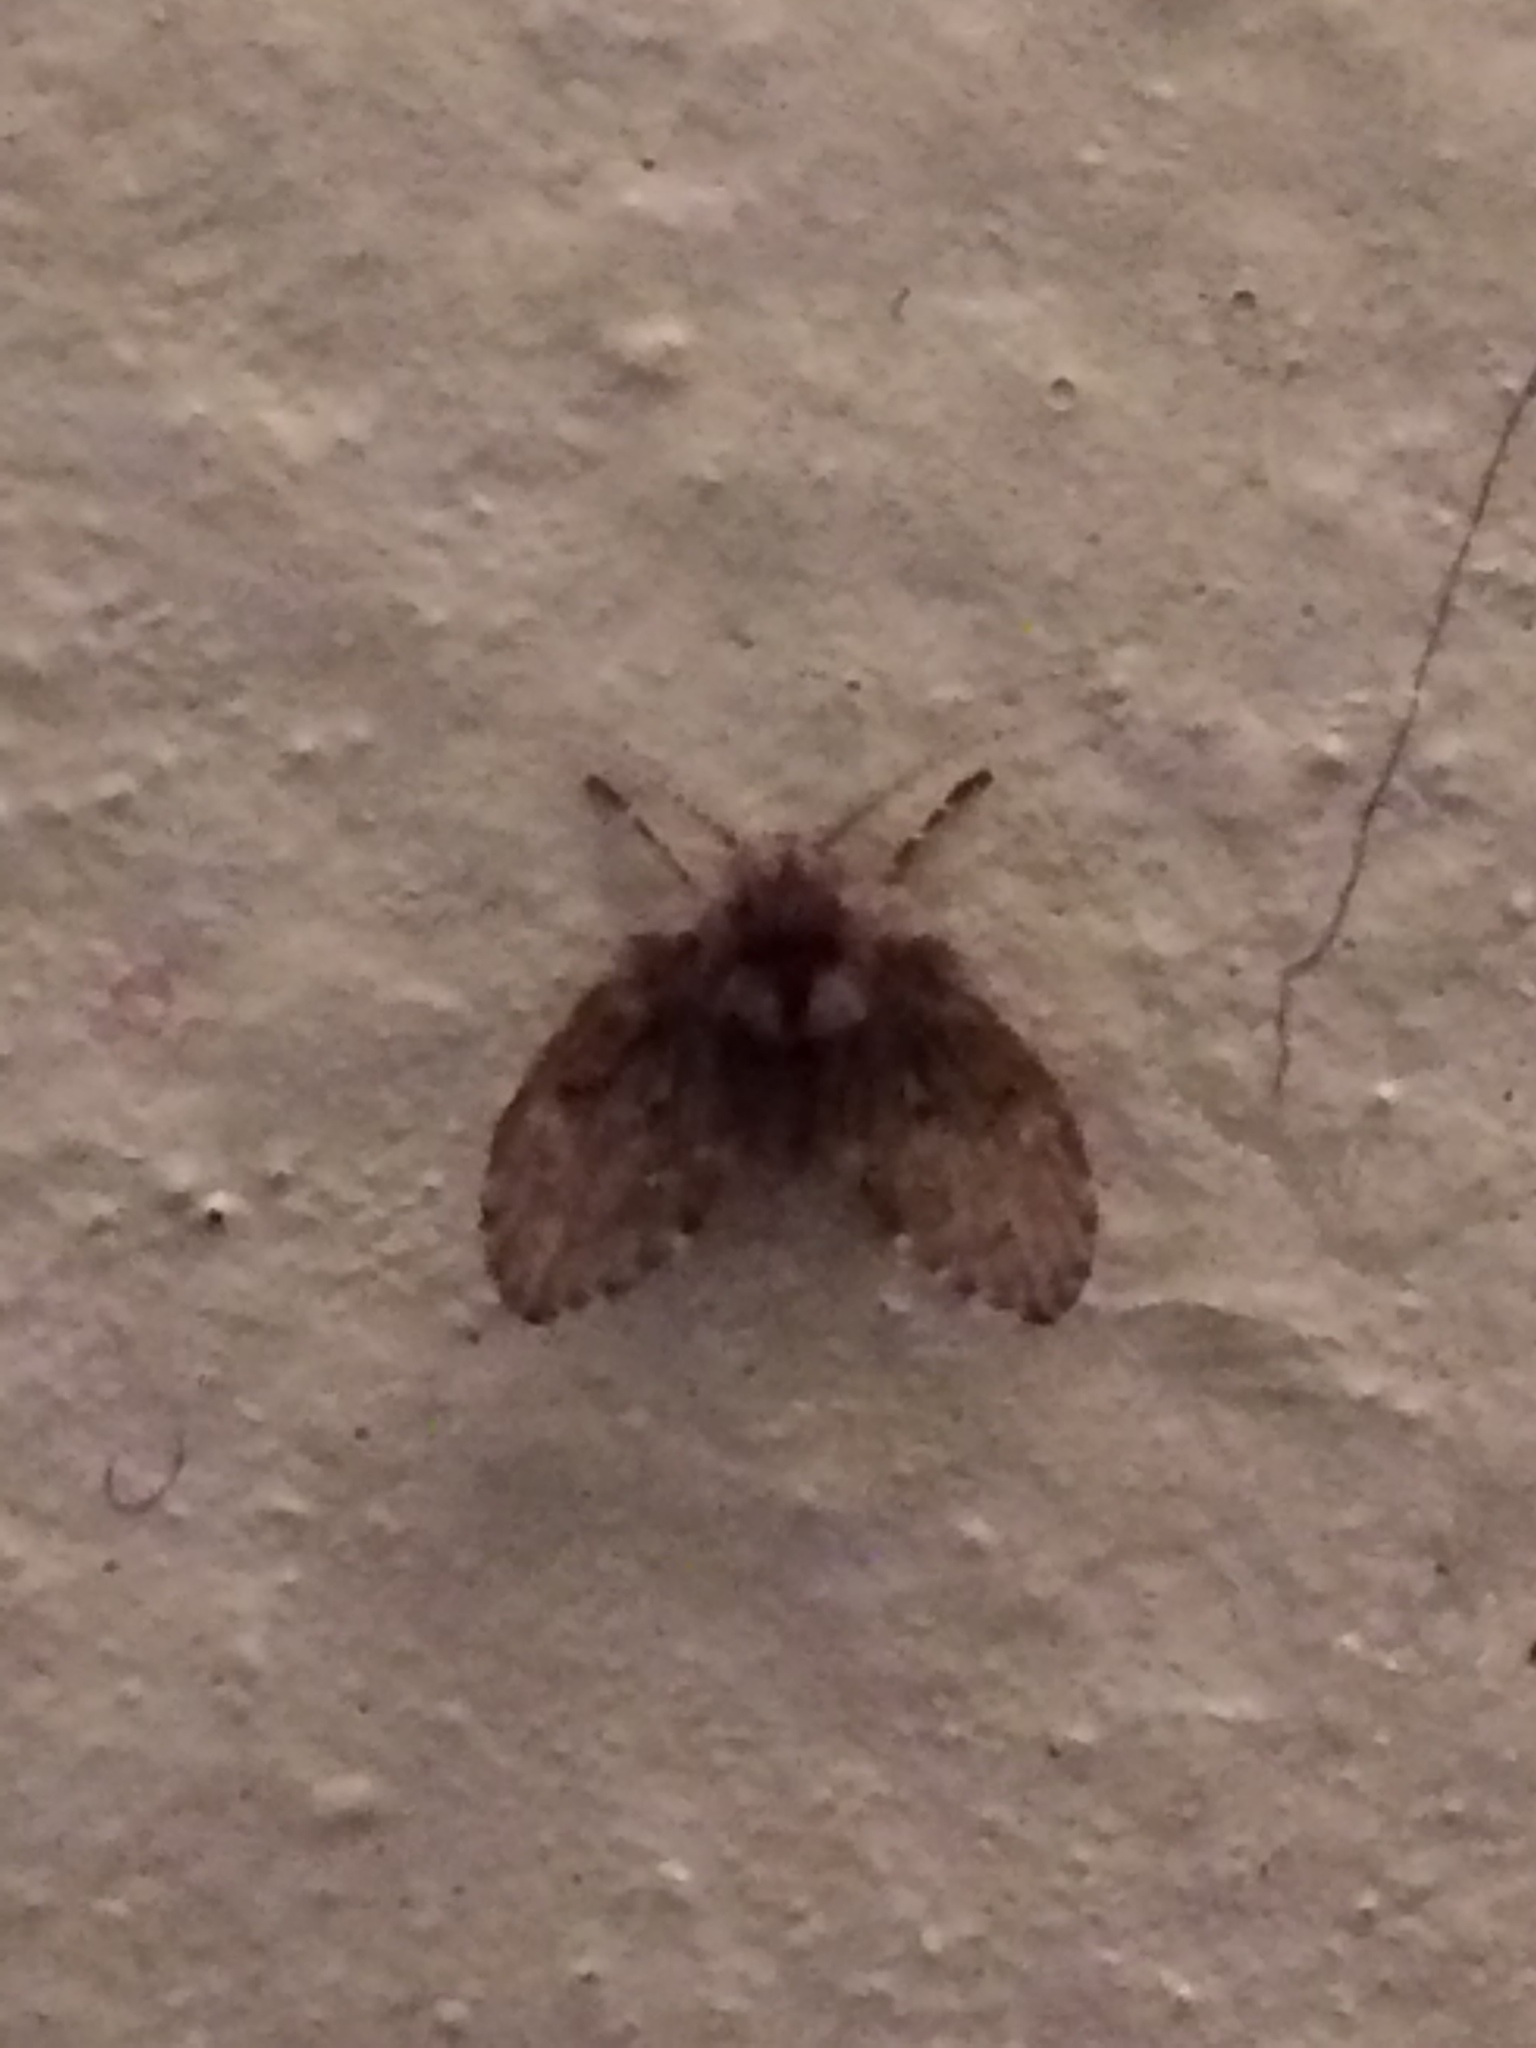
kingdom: Animalia
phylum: Arthropoda
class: Insecta
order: Diptera
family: Psychodidae
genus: Clogmia
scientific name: Clogmia albipunctatus
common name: White-spotted moth fly
